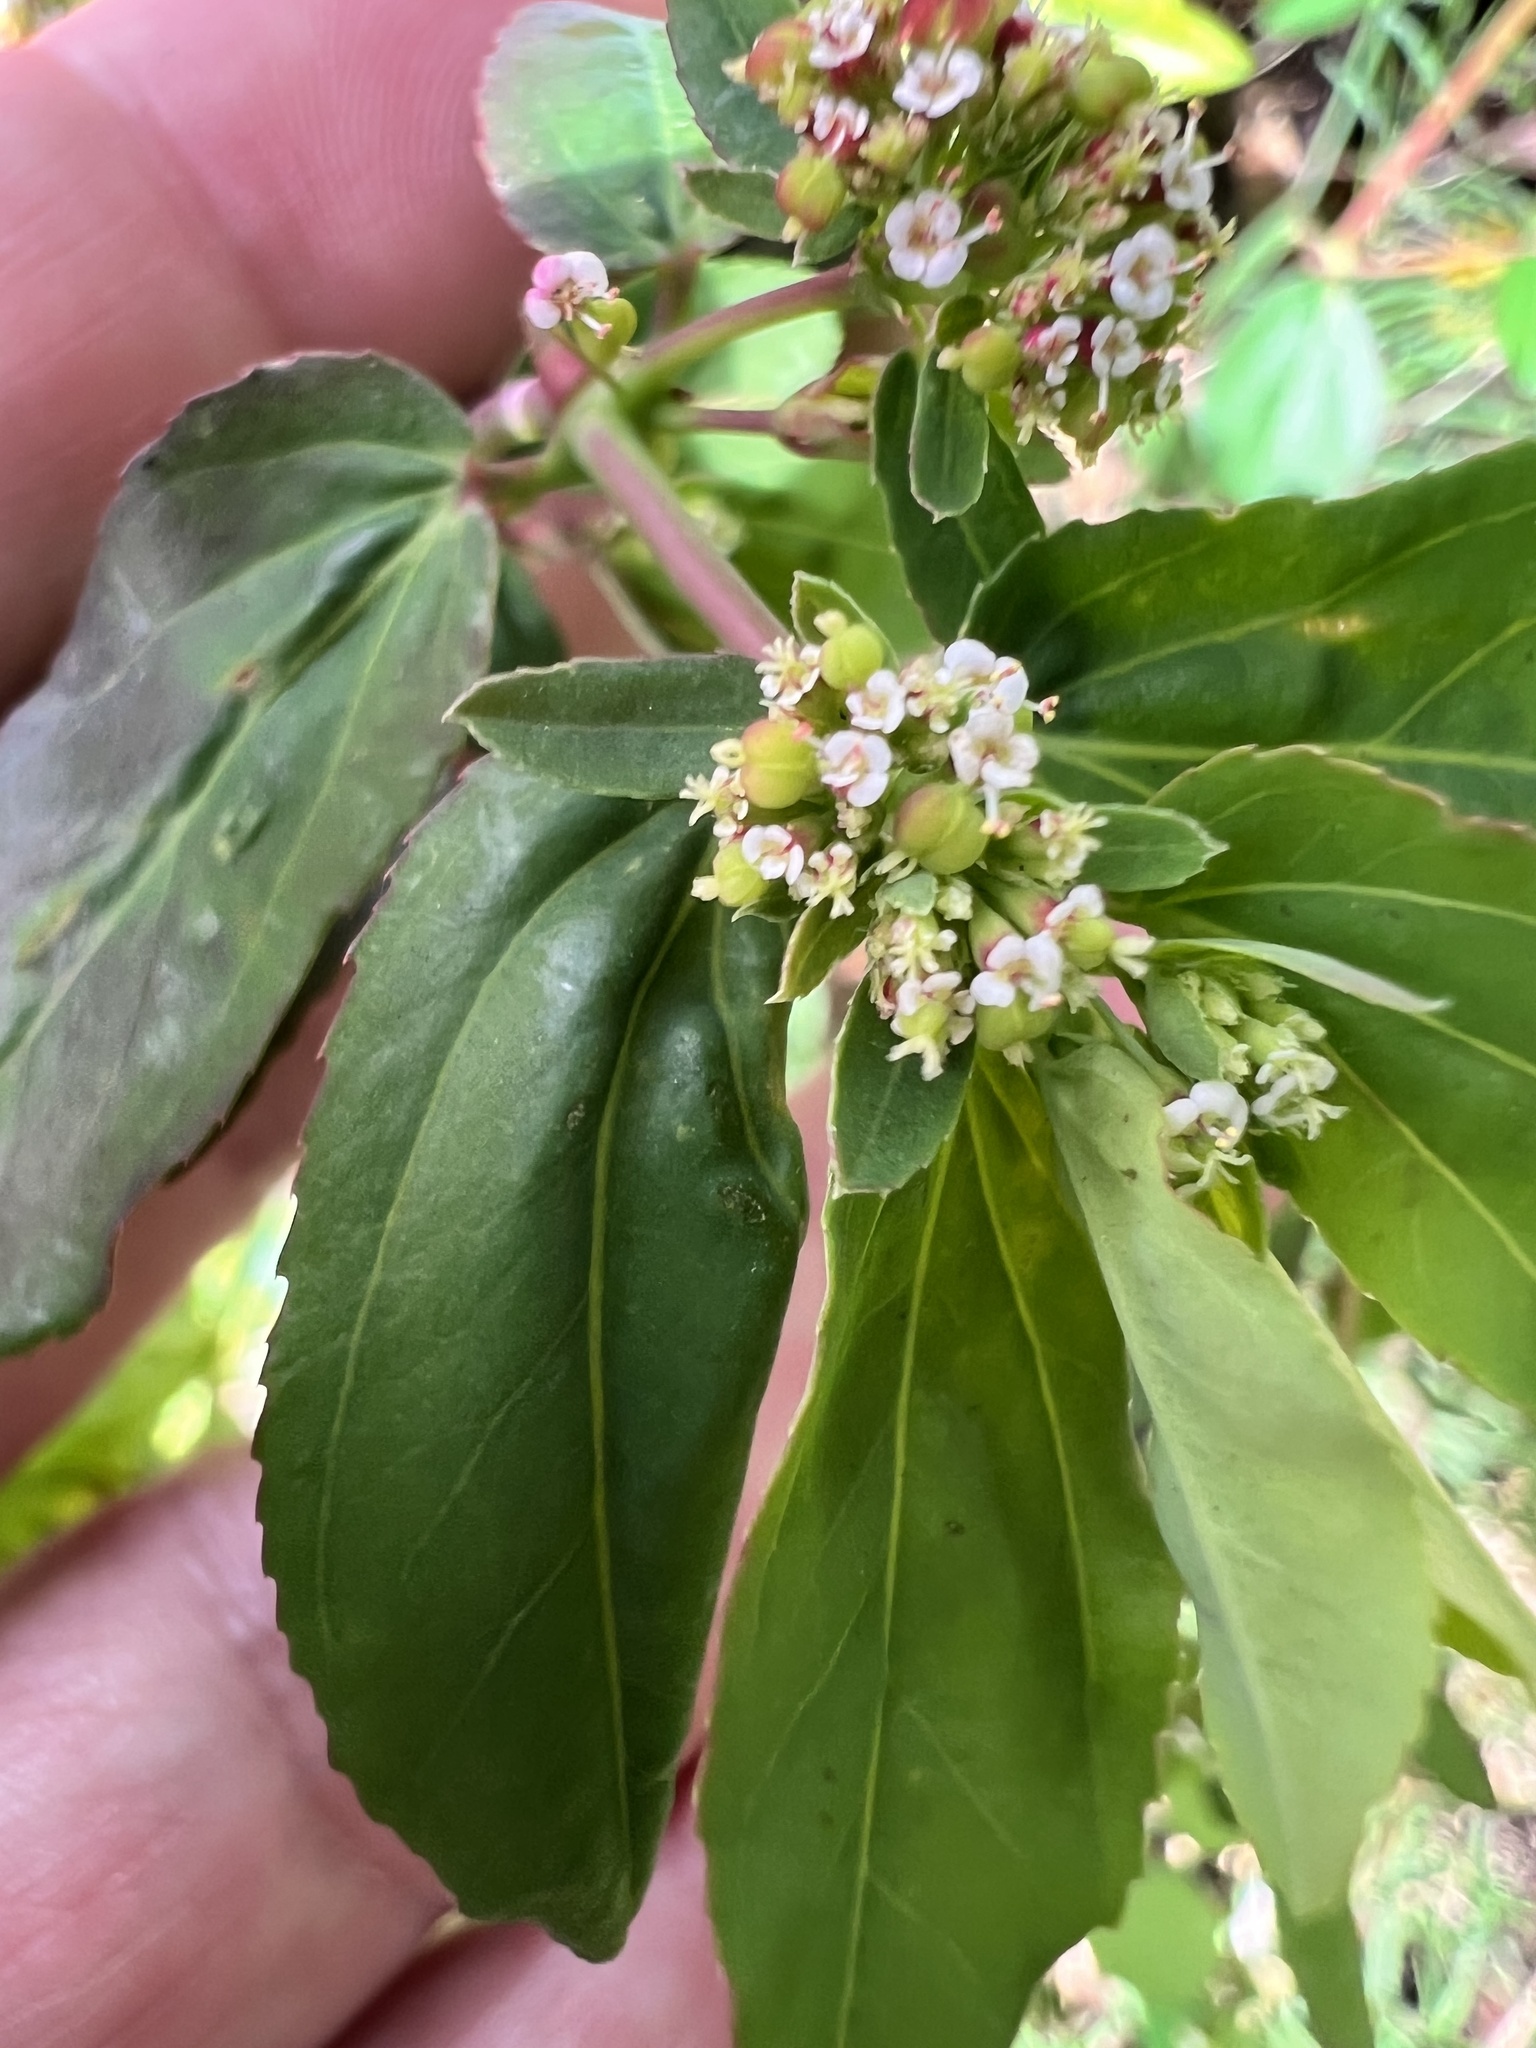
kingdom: Plantae
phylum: Tracheophyta
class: Magnoliopsida
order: Malpighiales
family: Euphorbiaceae
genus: Euphorbia
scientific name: Euphorbia hypericifolia
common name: Graceful sandmat
